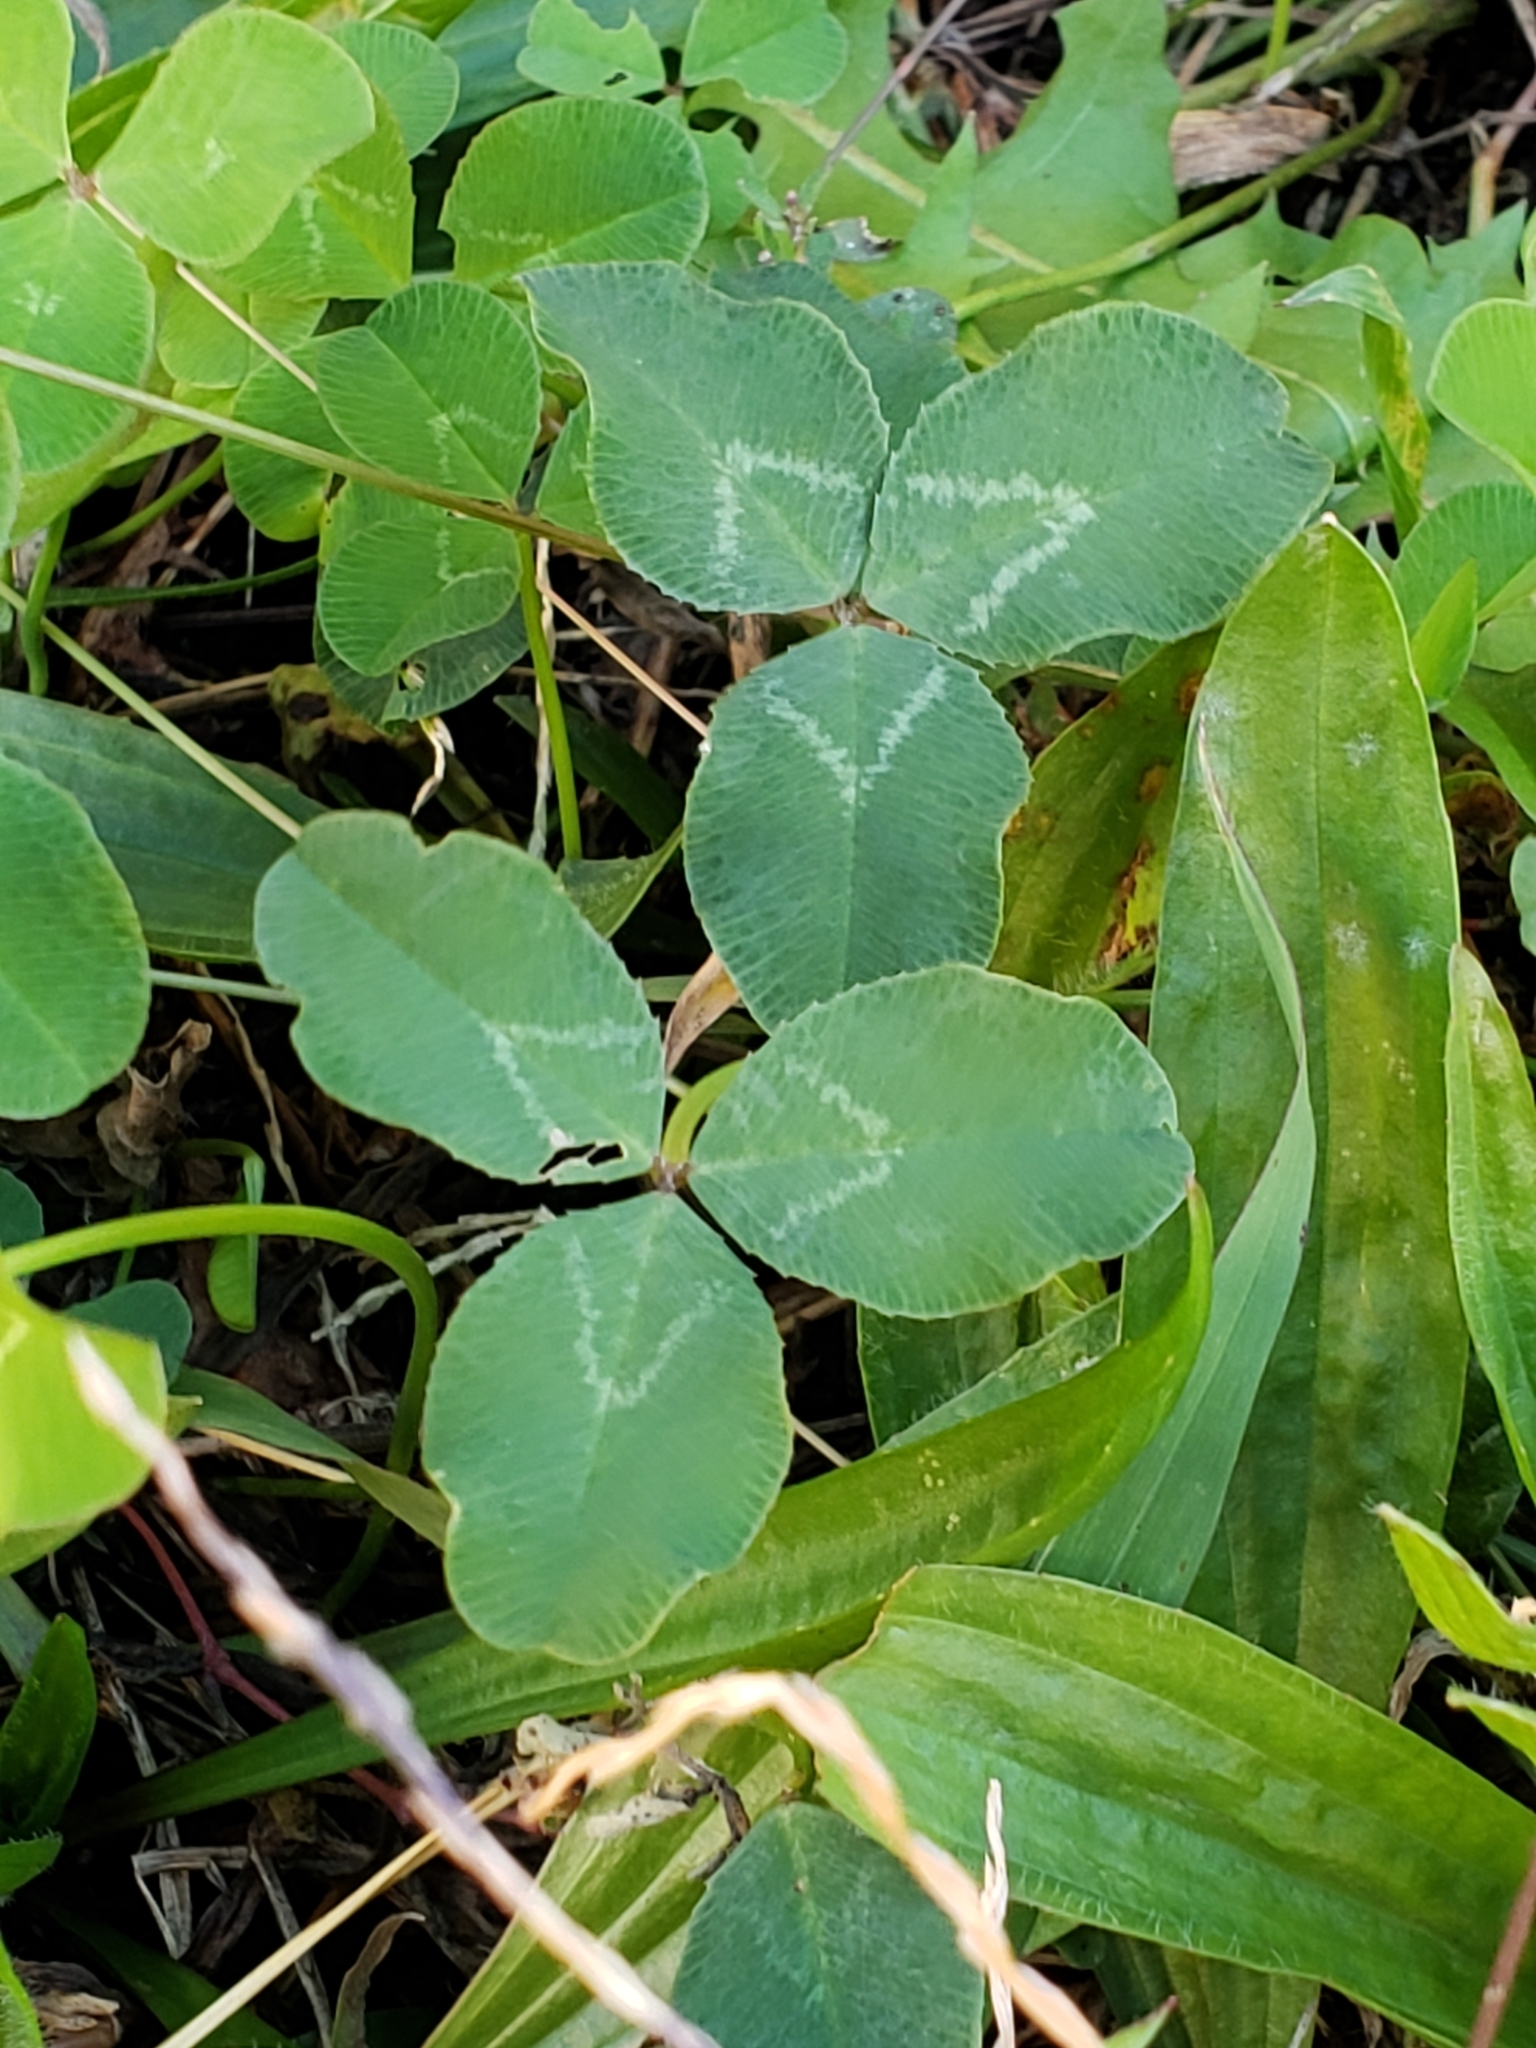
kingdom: Plantae
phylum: Tracheophyta
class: Magnoliopsida
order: Fabales
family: Fabaceae
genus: Trifolium
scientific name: Trifolium pratense
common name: Red clover
